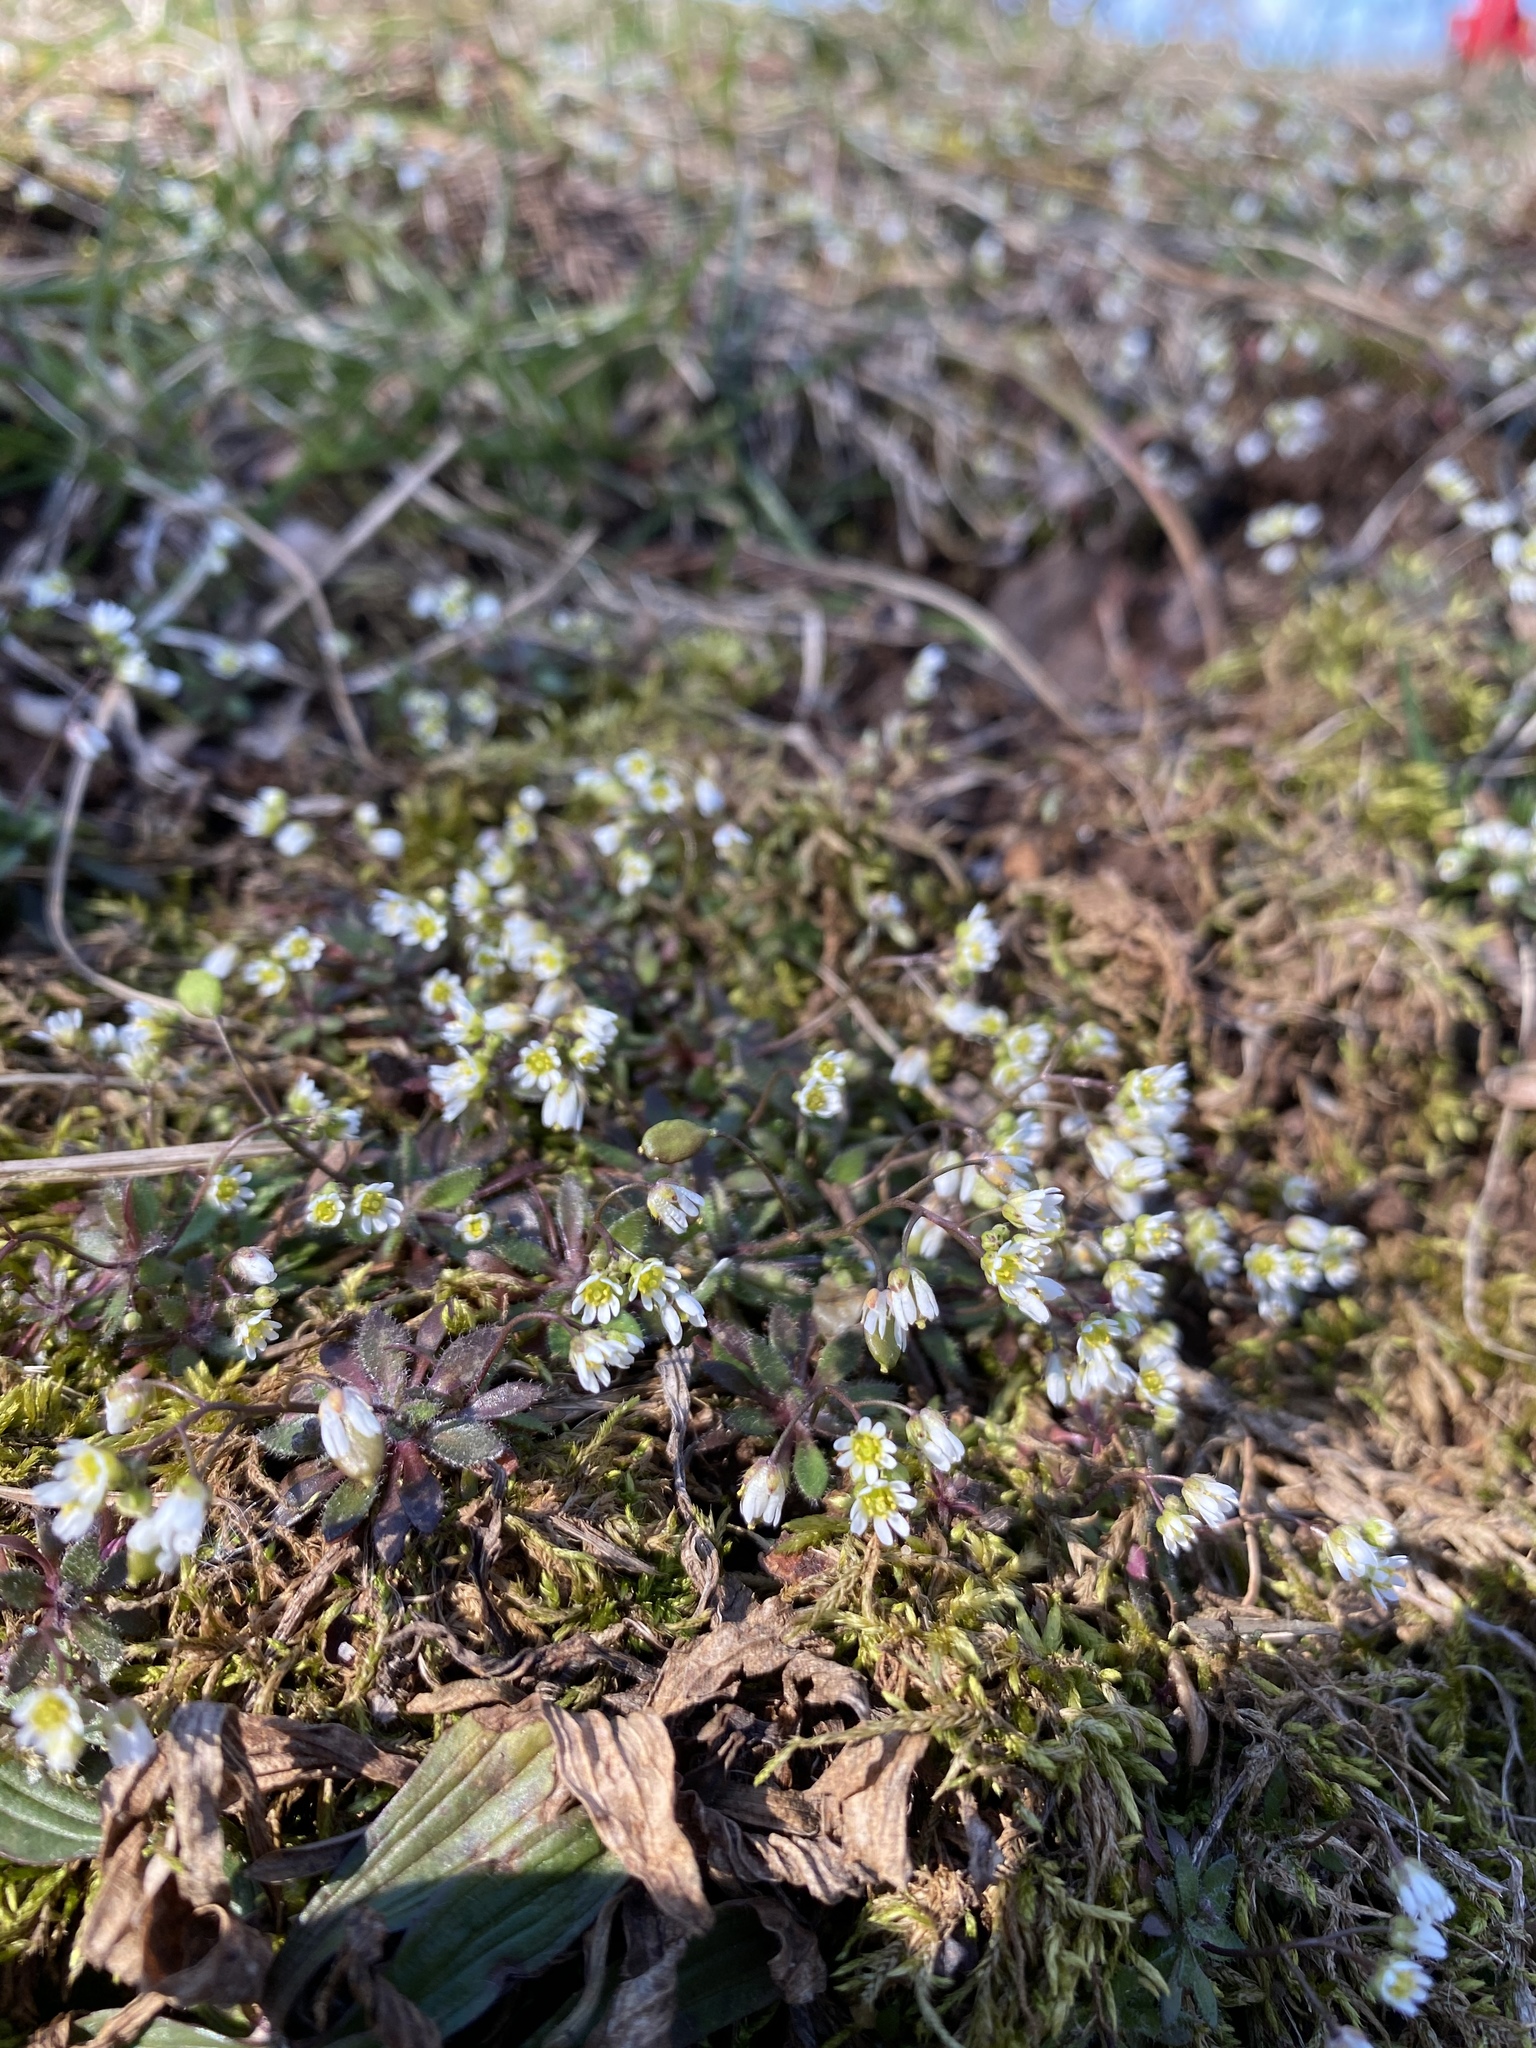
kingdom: Plantae
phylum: Tracheophyta
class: Magnoliopsida
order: Brassicales
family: Brassicaceae
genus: Draba
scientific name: Draba verna
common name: Spring draba
